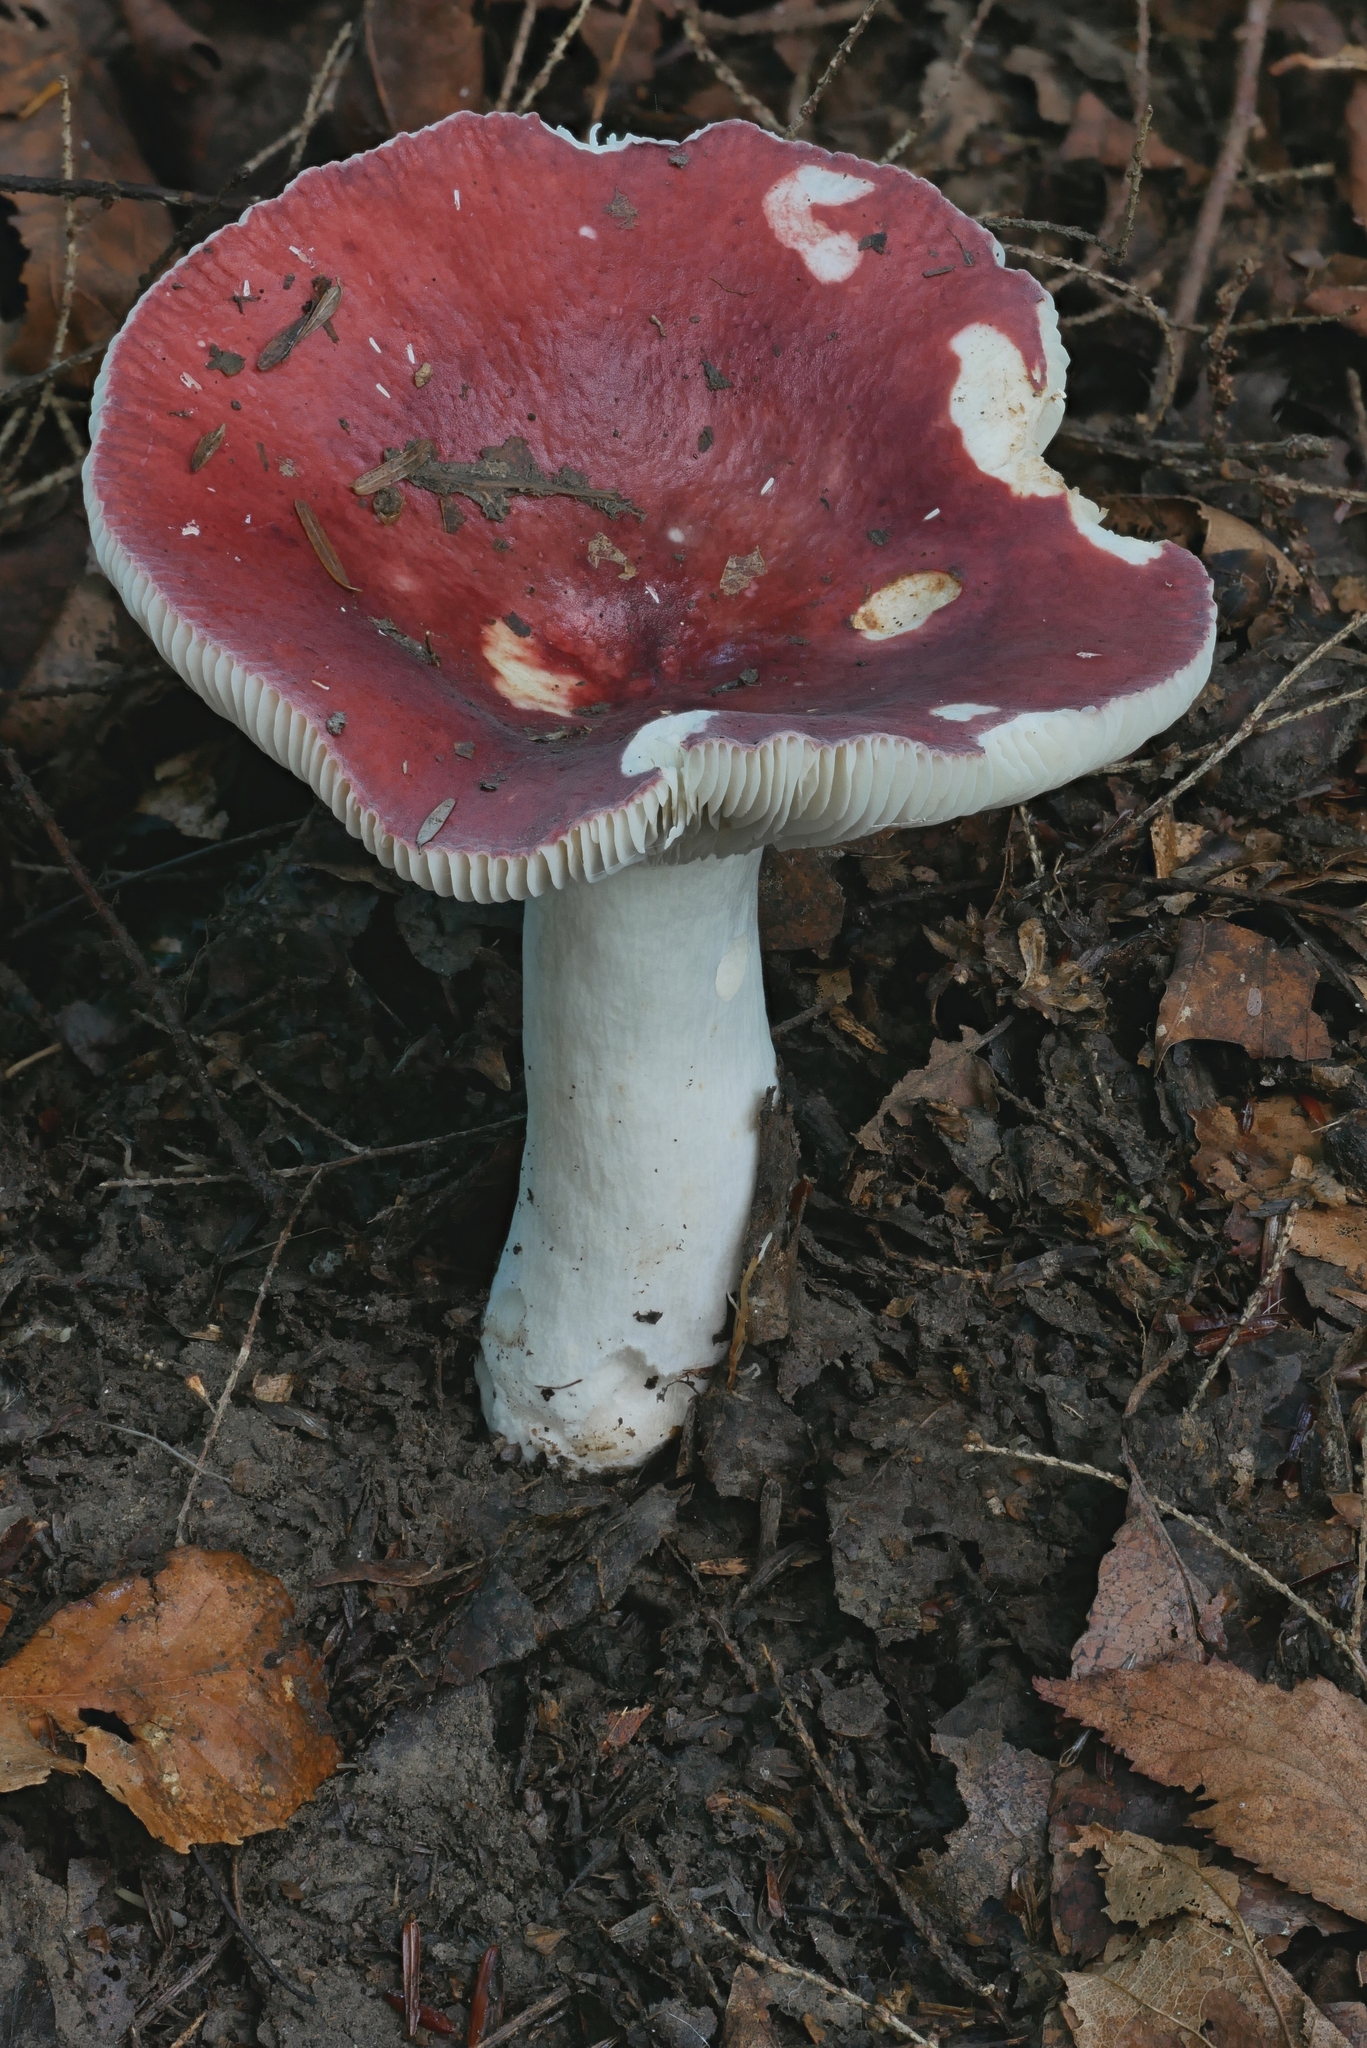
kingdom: Fungi
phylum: Basidiomycota
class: Agaricomycetes
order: Russulales
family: Russulaceae
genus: Russula
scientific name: Russula
